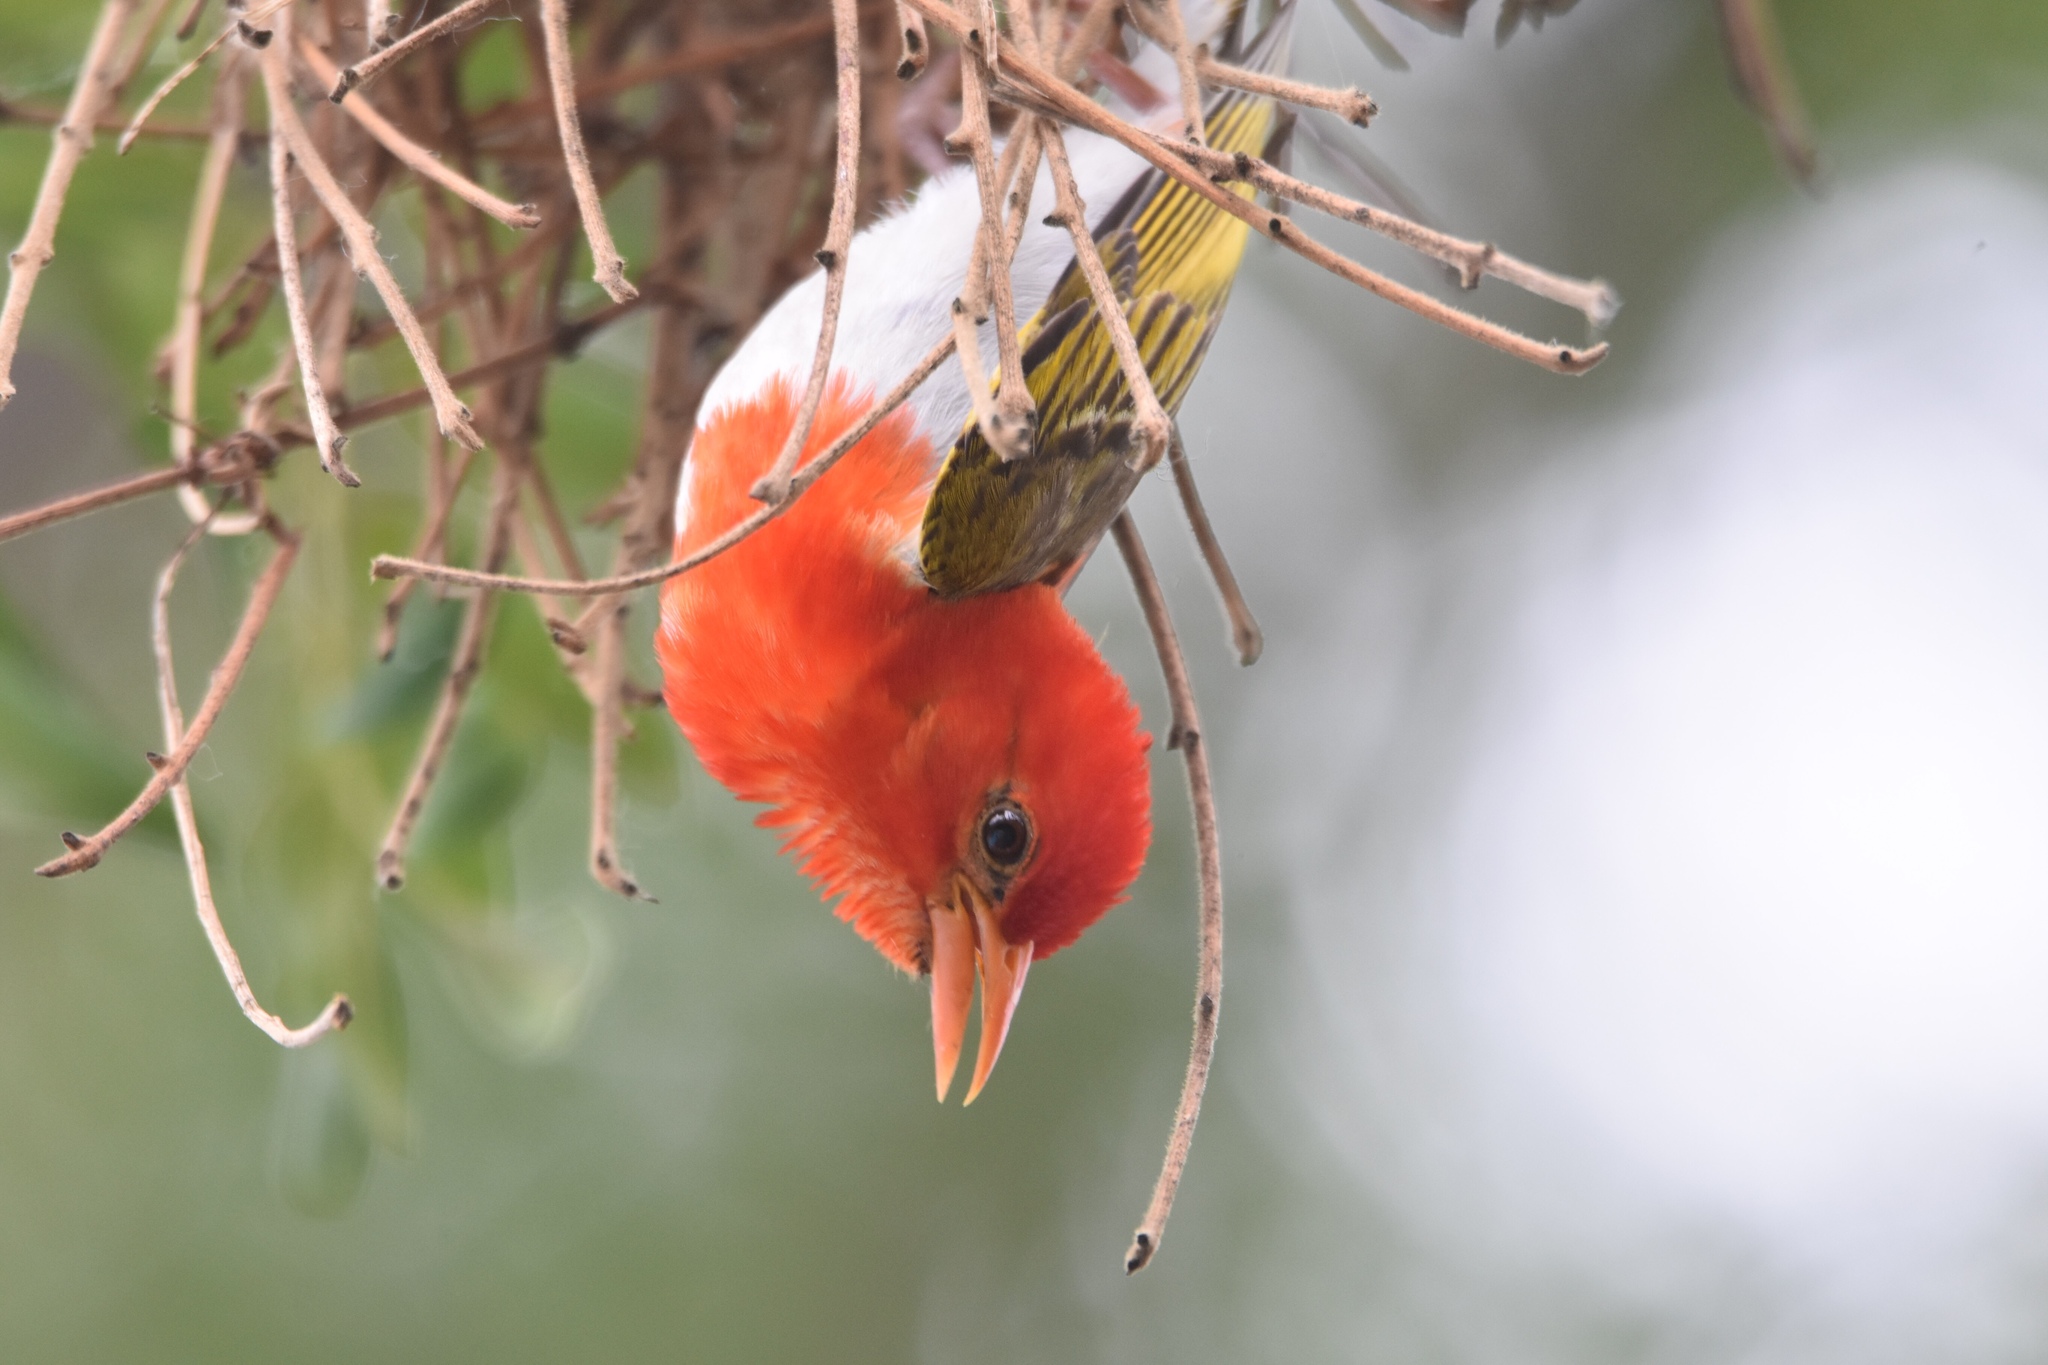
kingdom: Animalia
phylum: Chordata
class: Aves
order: Passeriformes
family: Ploceidae
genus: Anaplectes
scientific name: Anaplectes rubriceps
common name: Red-headed weaver
